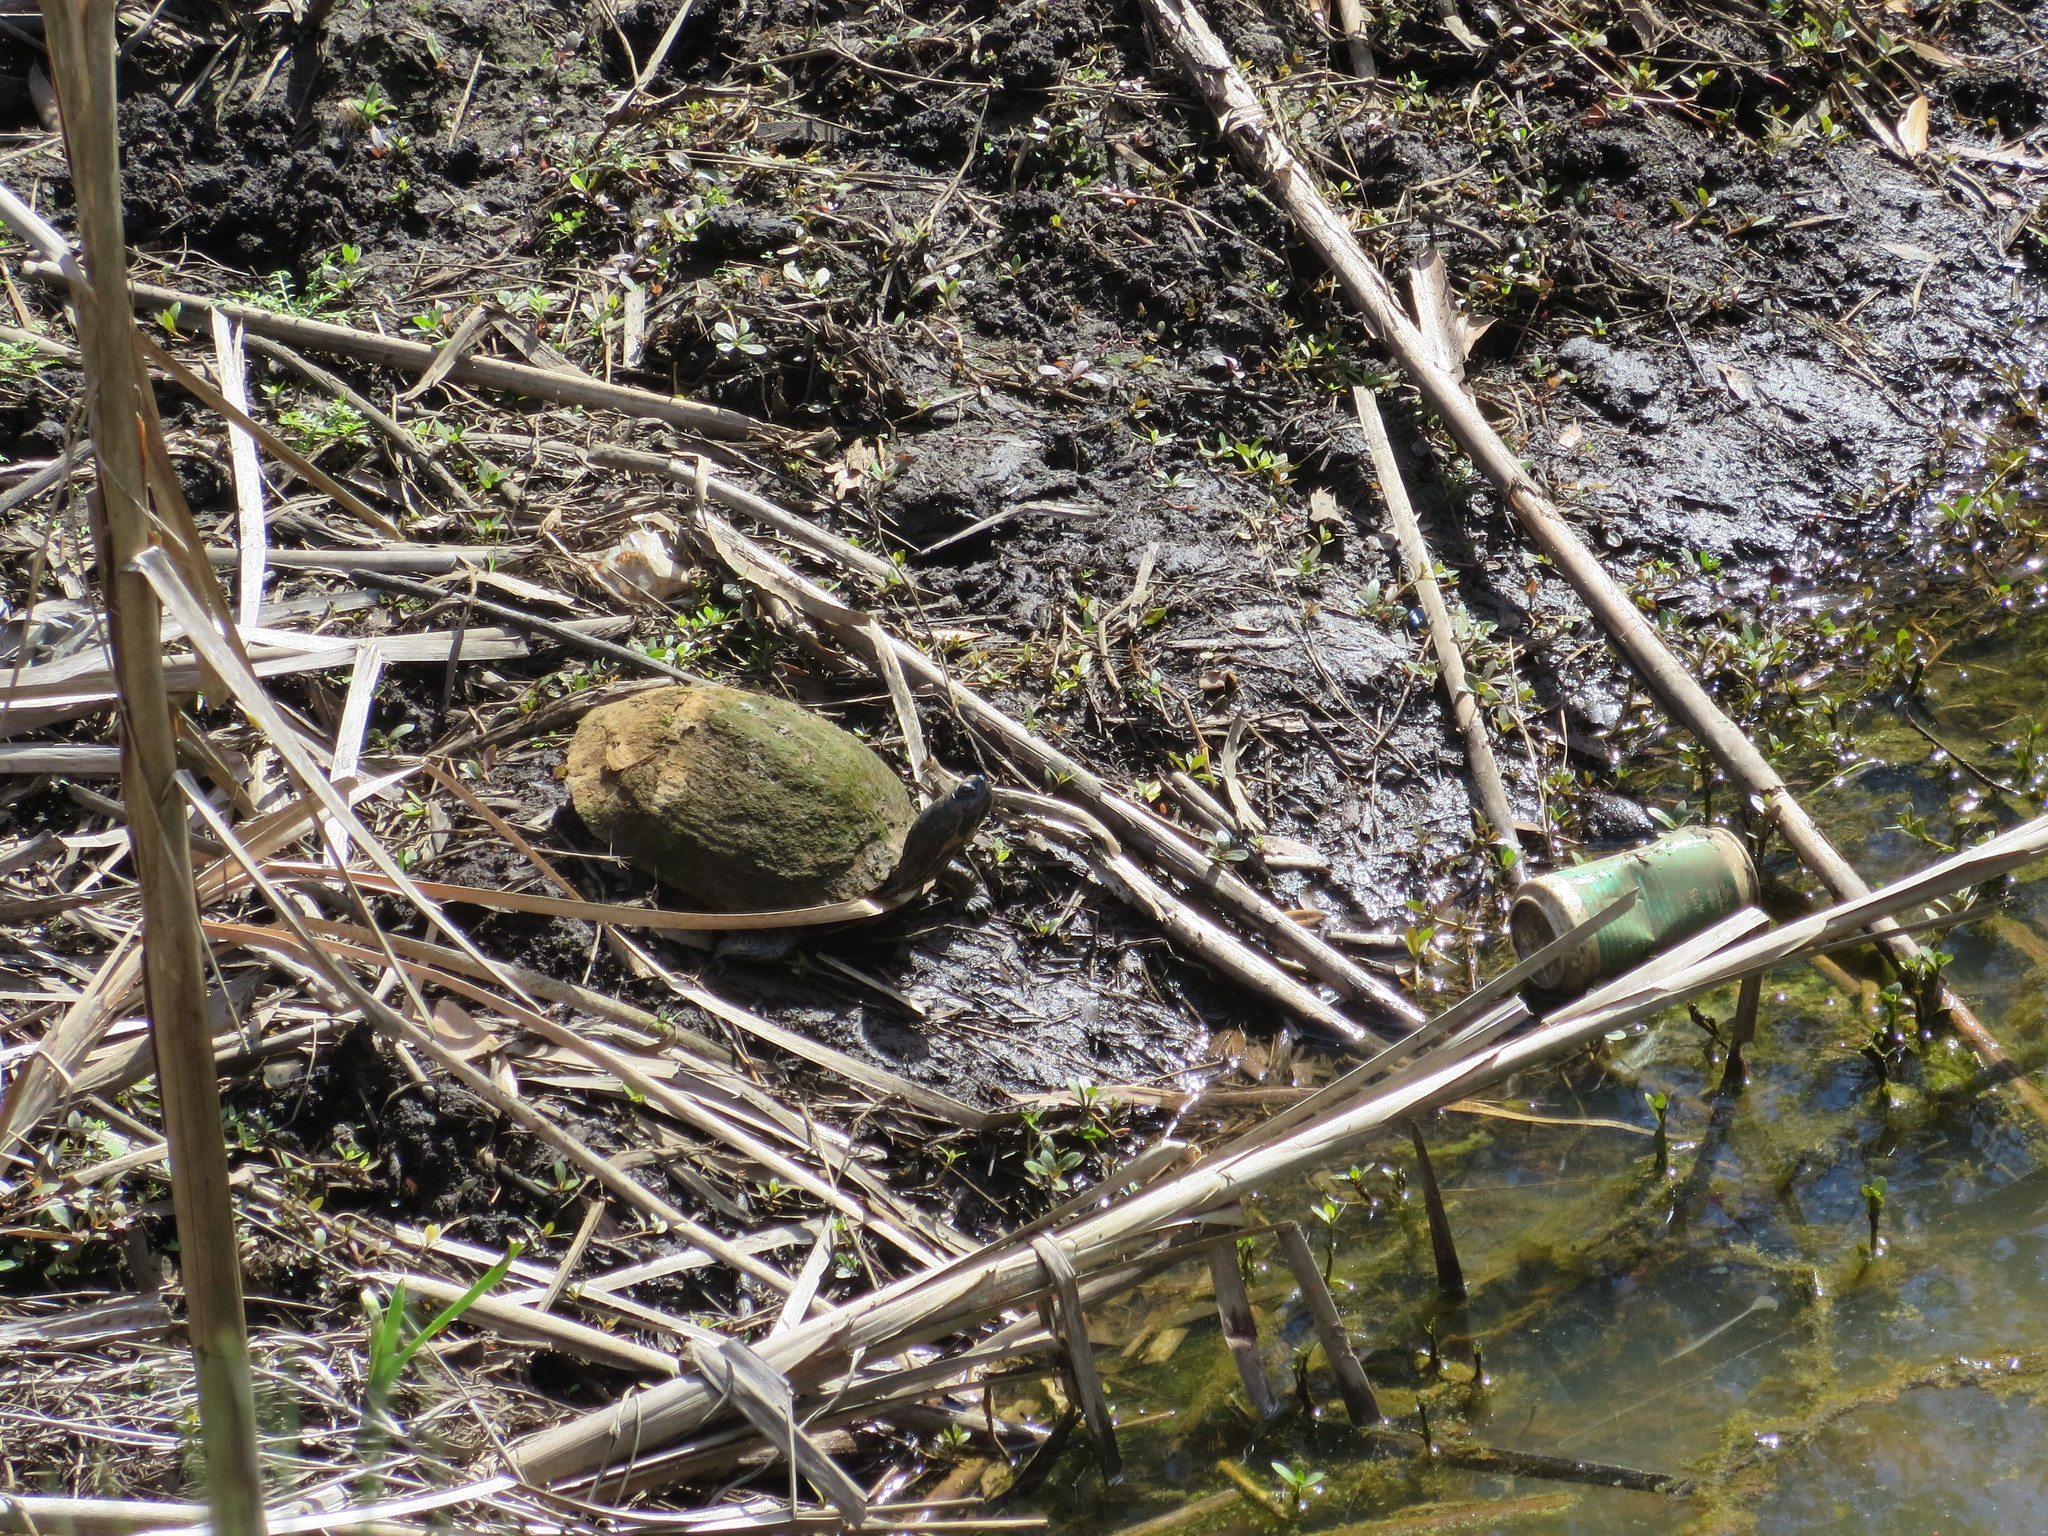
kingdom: Animalia
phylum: Chordata
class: Testudines
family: Emydidae
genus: Trachemys
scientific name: Trachemys scripta
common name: Slider
